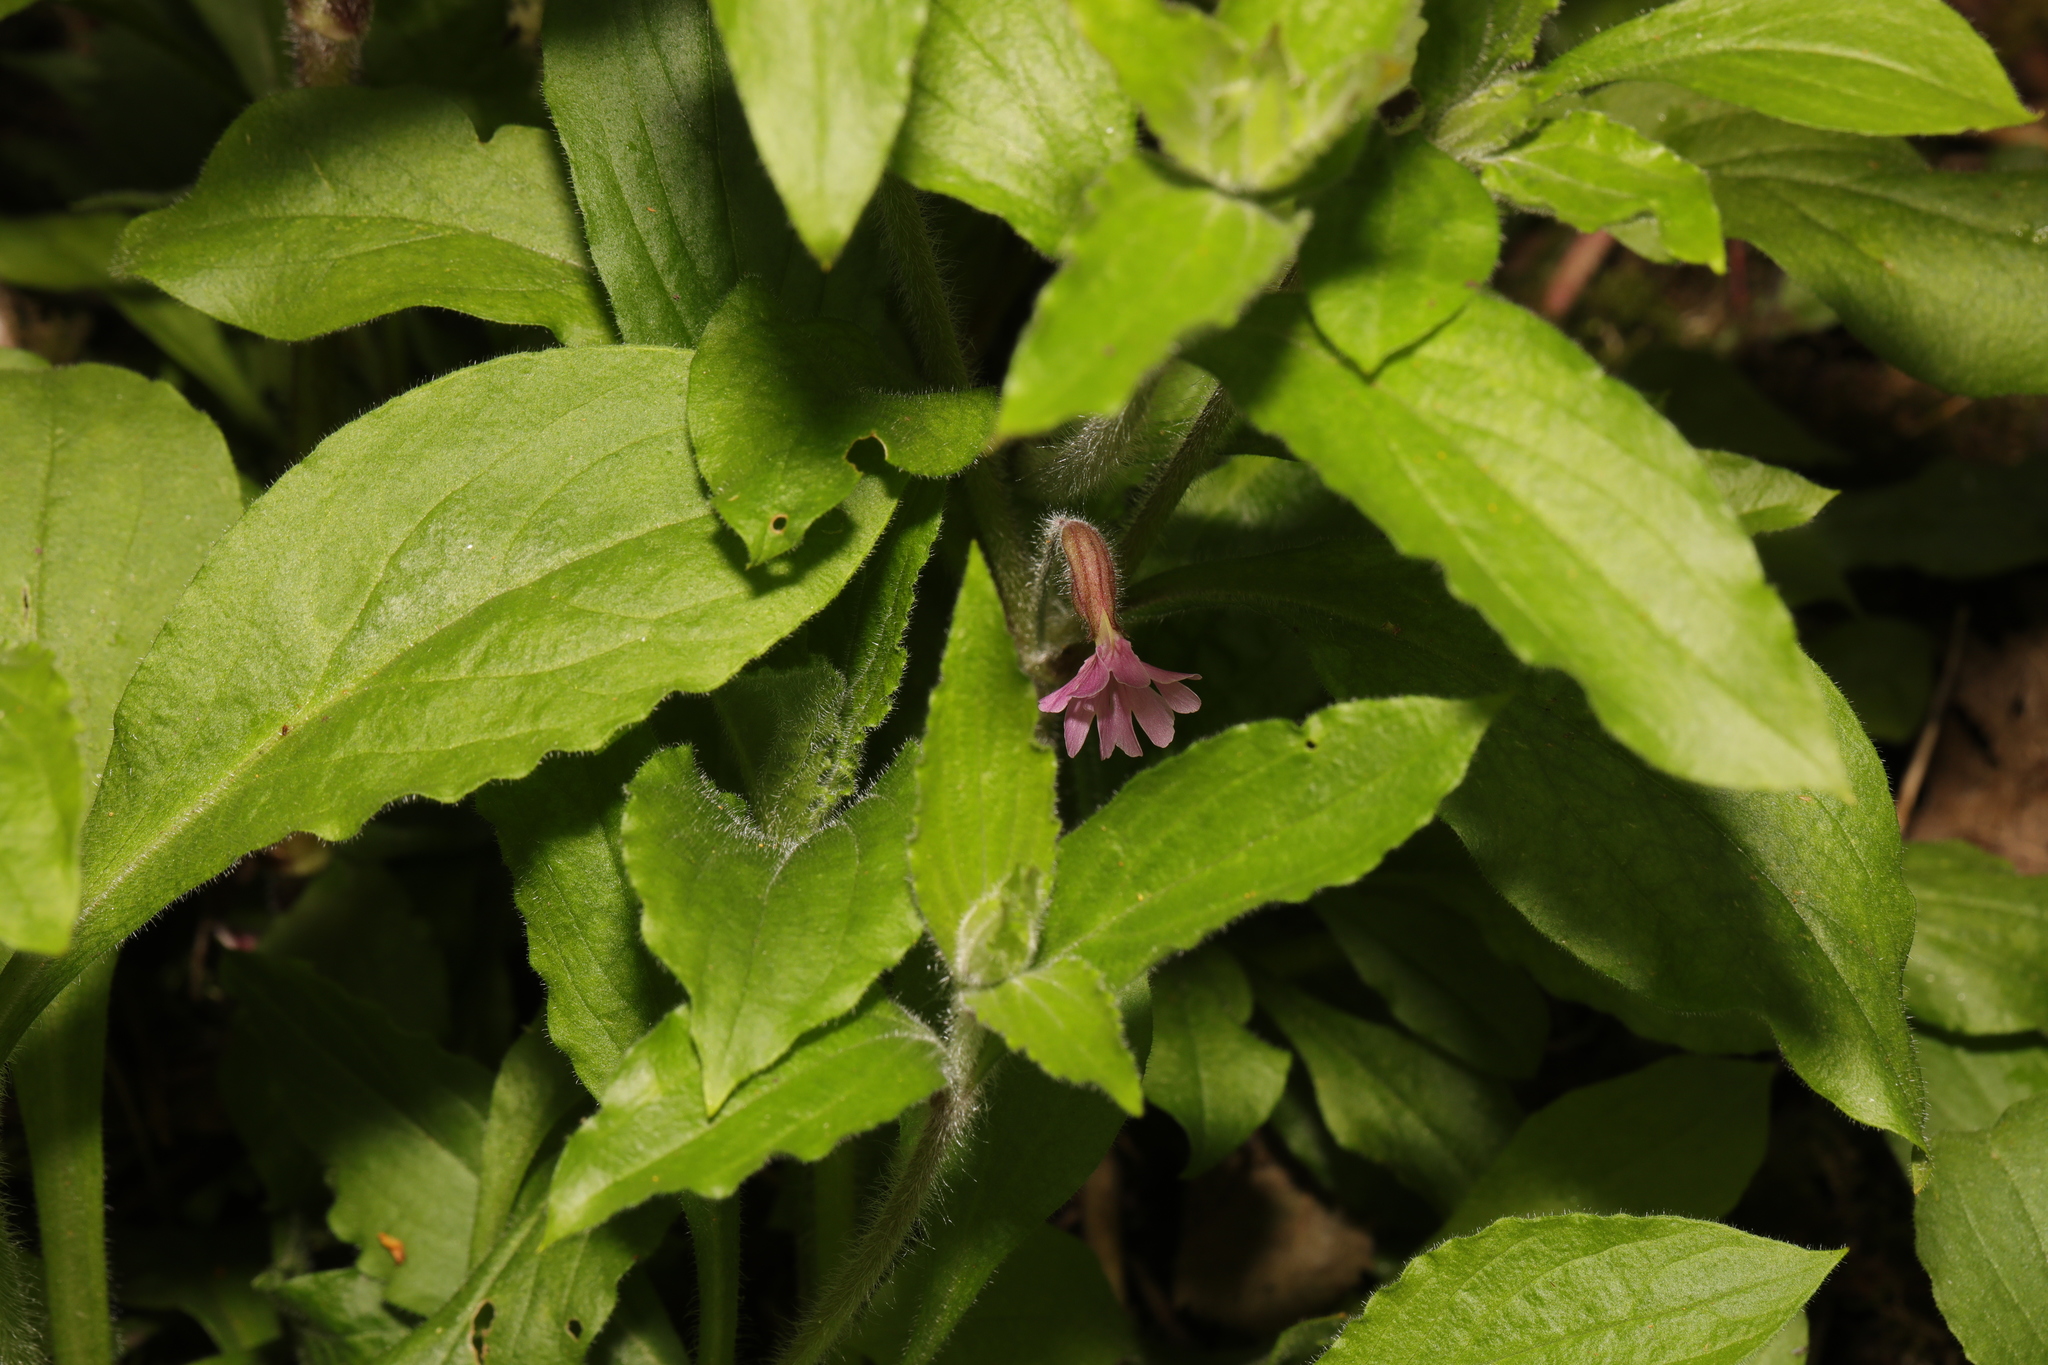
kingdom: Plantae
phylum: Tracheophyta
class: Magnoliopsida
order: Caryophyllales
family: Caryophyllaceae
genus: Silene
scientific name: Silene dioica
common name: Red campion
